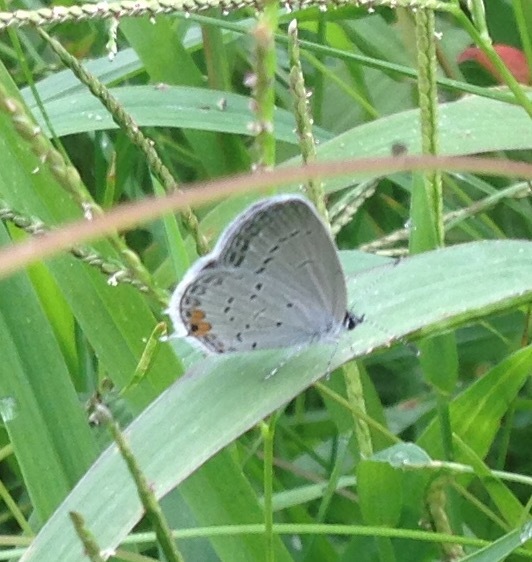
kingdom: Animalia
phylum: Arthropoda
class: Insecta
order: Lepidoptera
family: Lycaenidae
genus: Elkalyce
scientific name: Elkalyce comyntas
